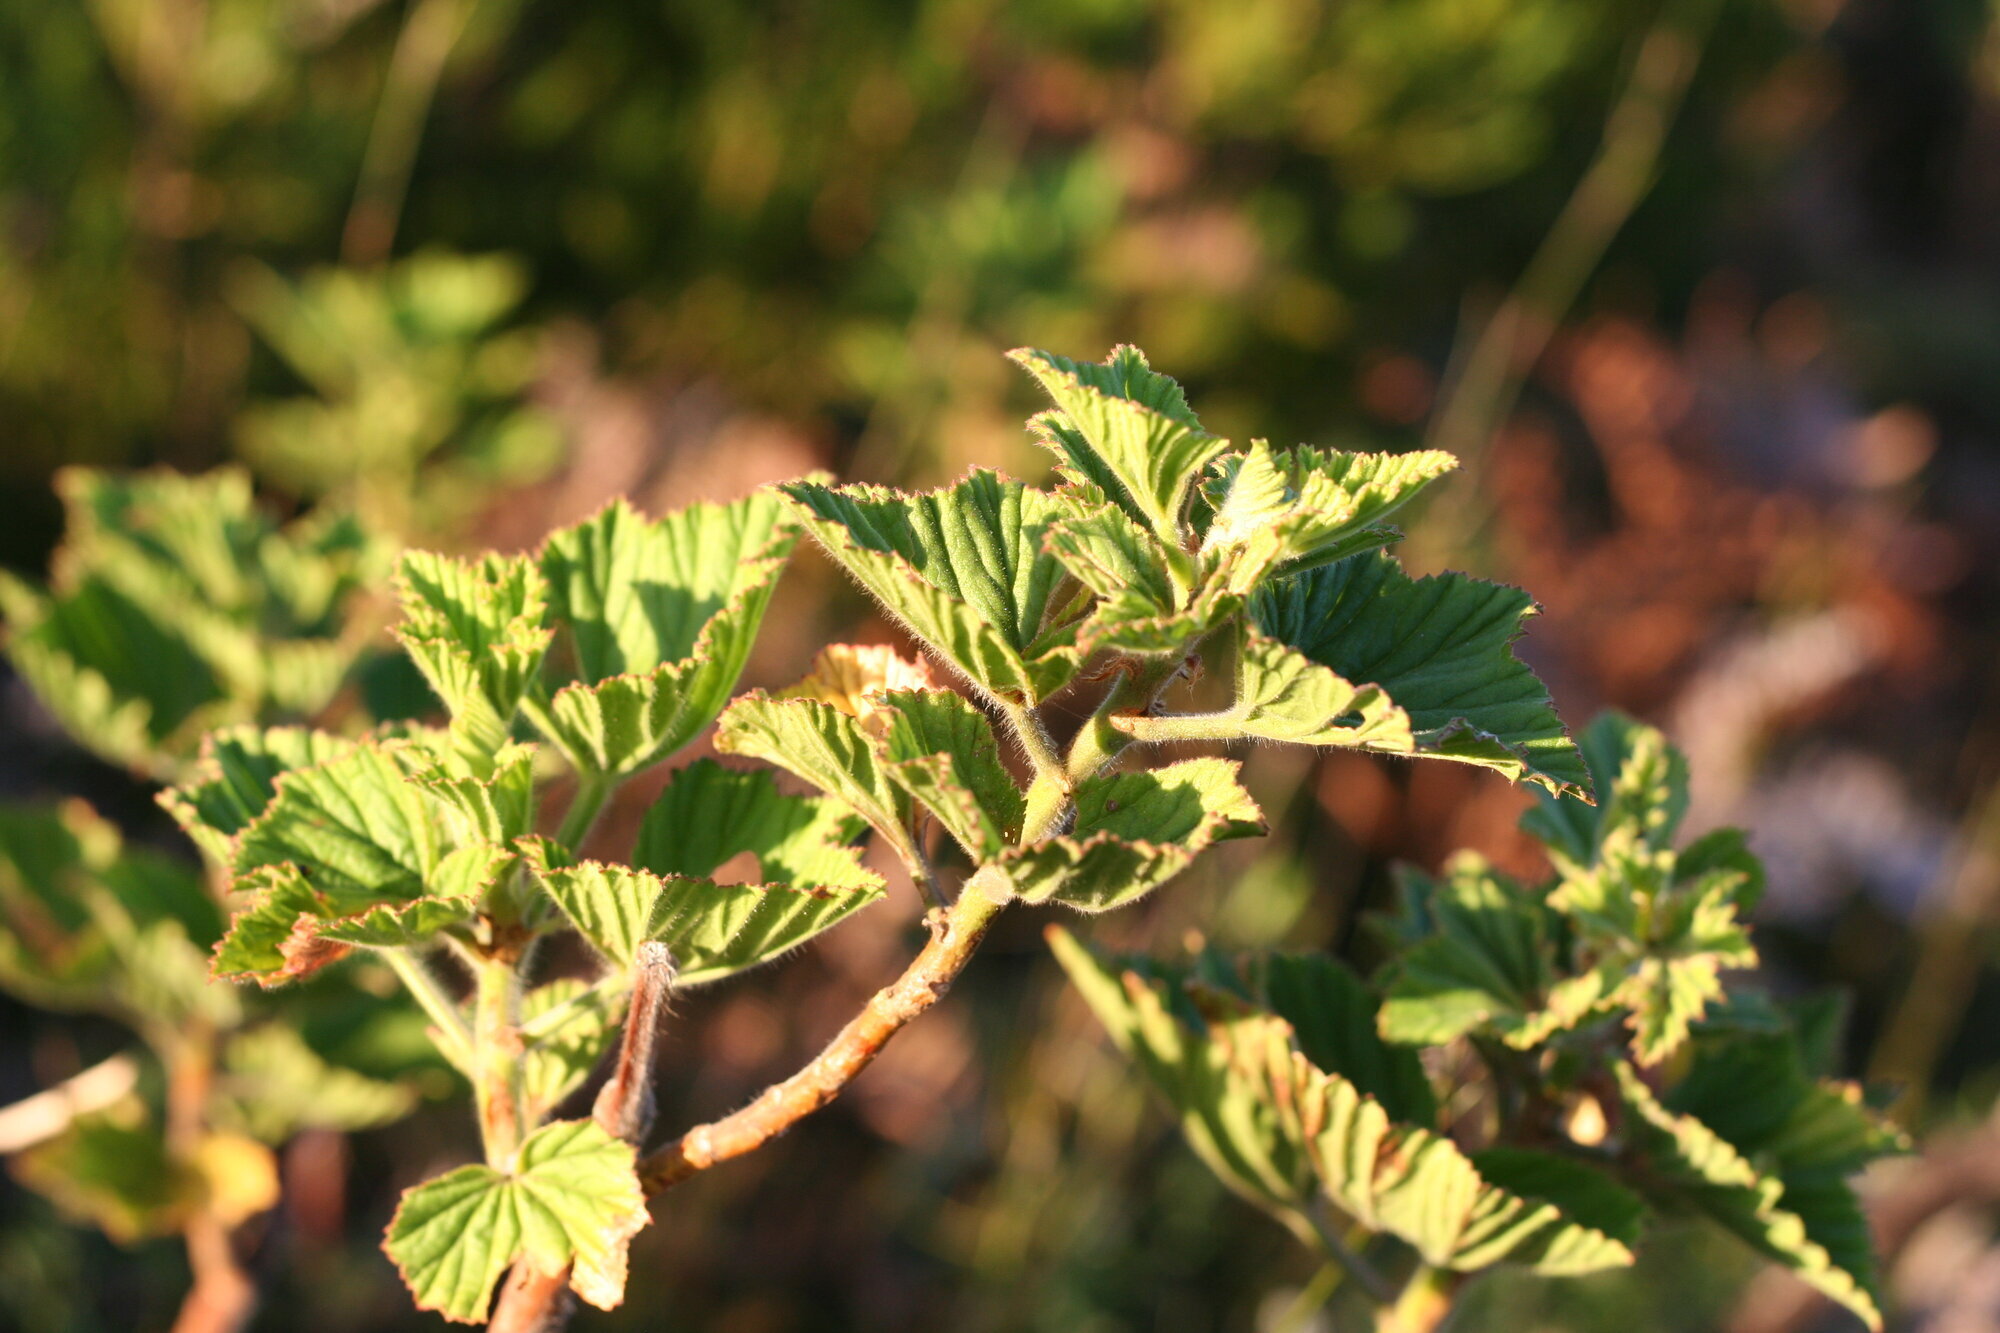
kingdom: Plantae
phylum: Tracheophyta
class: Magnoliopsida
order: Geraniales
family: Geraniaceae
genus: Pelargonium
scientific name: Pelargonium cucullatum
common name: Tree pelargonium
